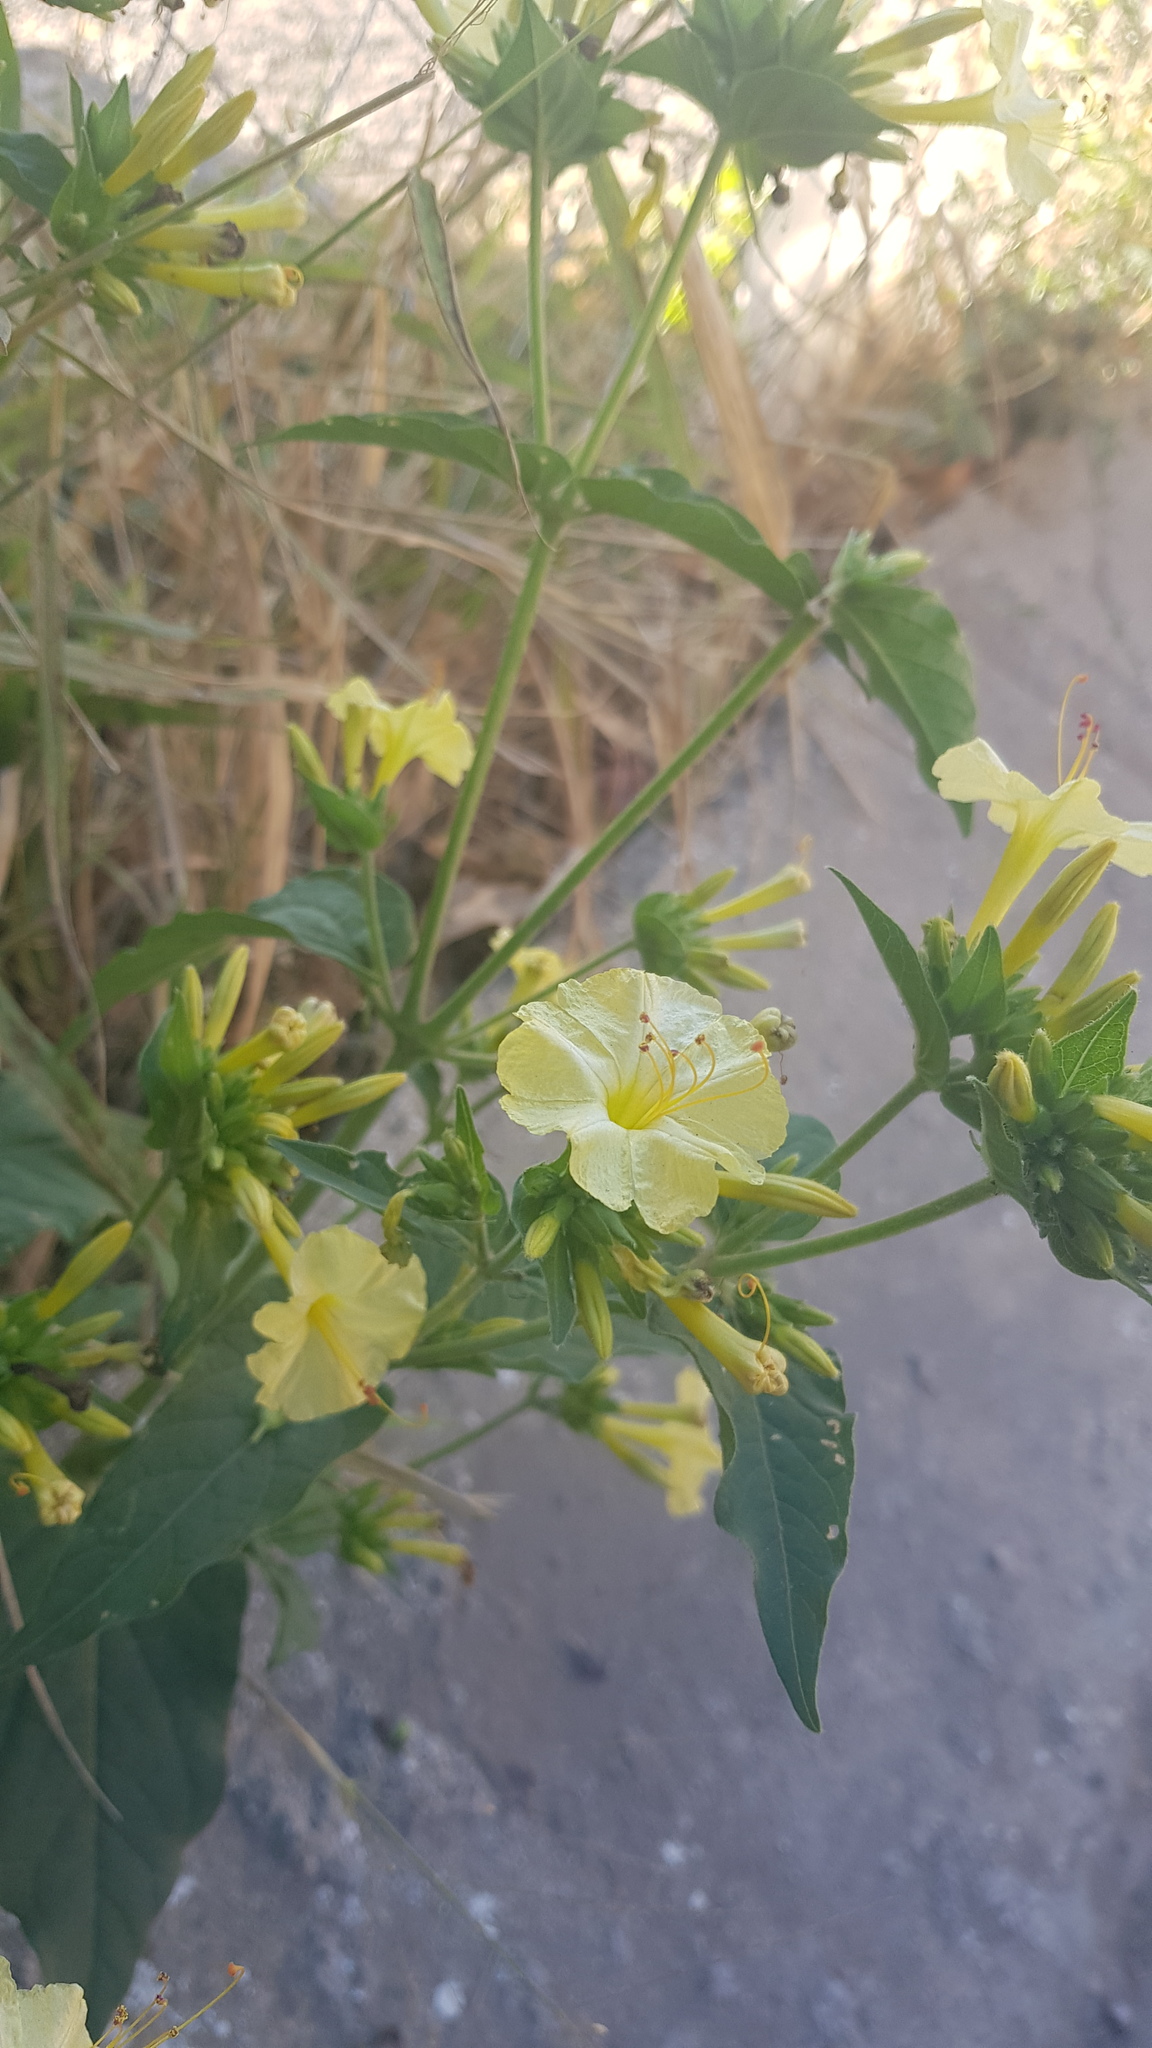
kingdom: Plantae
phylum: Tracheophyta
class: Magnoliopsida
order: Caryophyllales
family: Nyctaginaceae
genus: Mirabilis
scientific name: Mirabilis jalapa
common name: Marvel-of-peru
